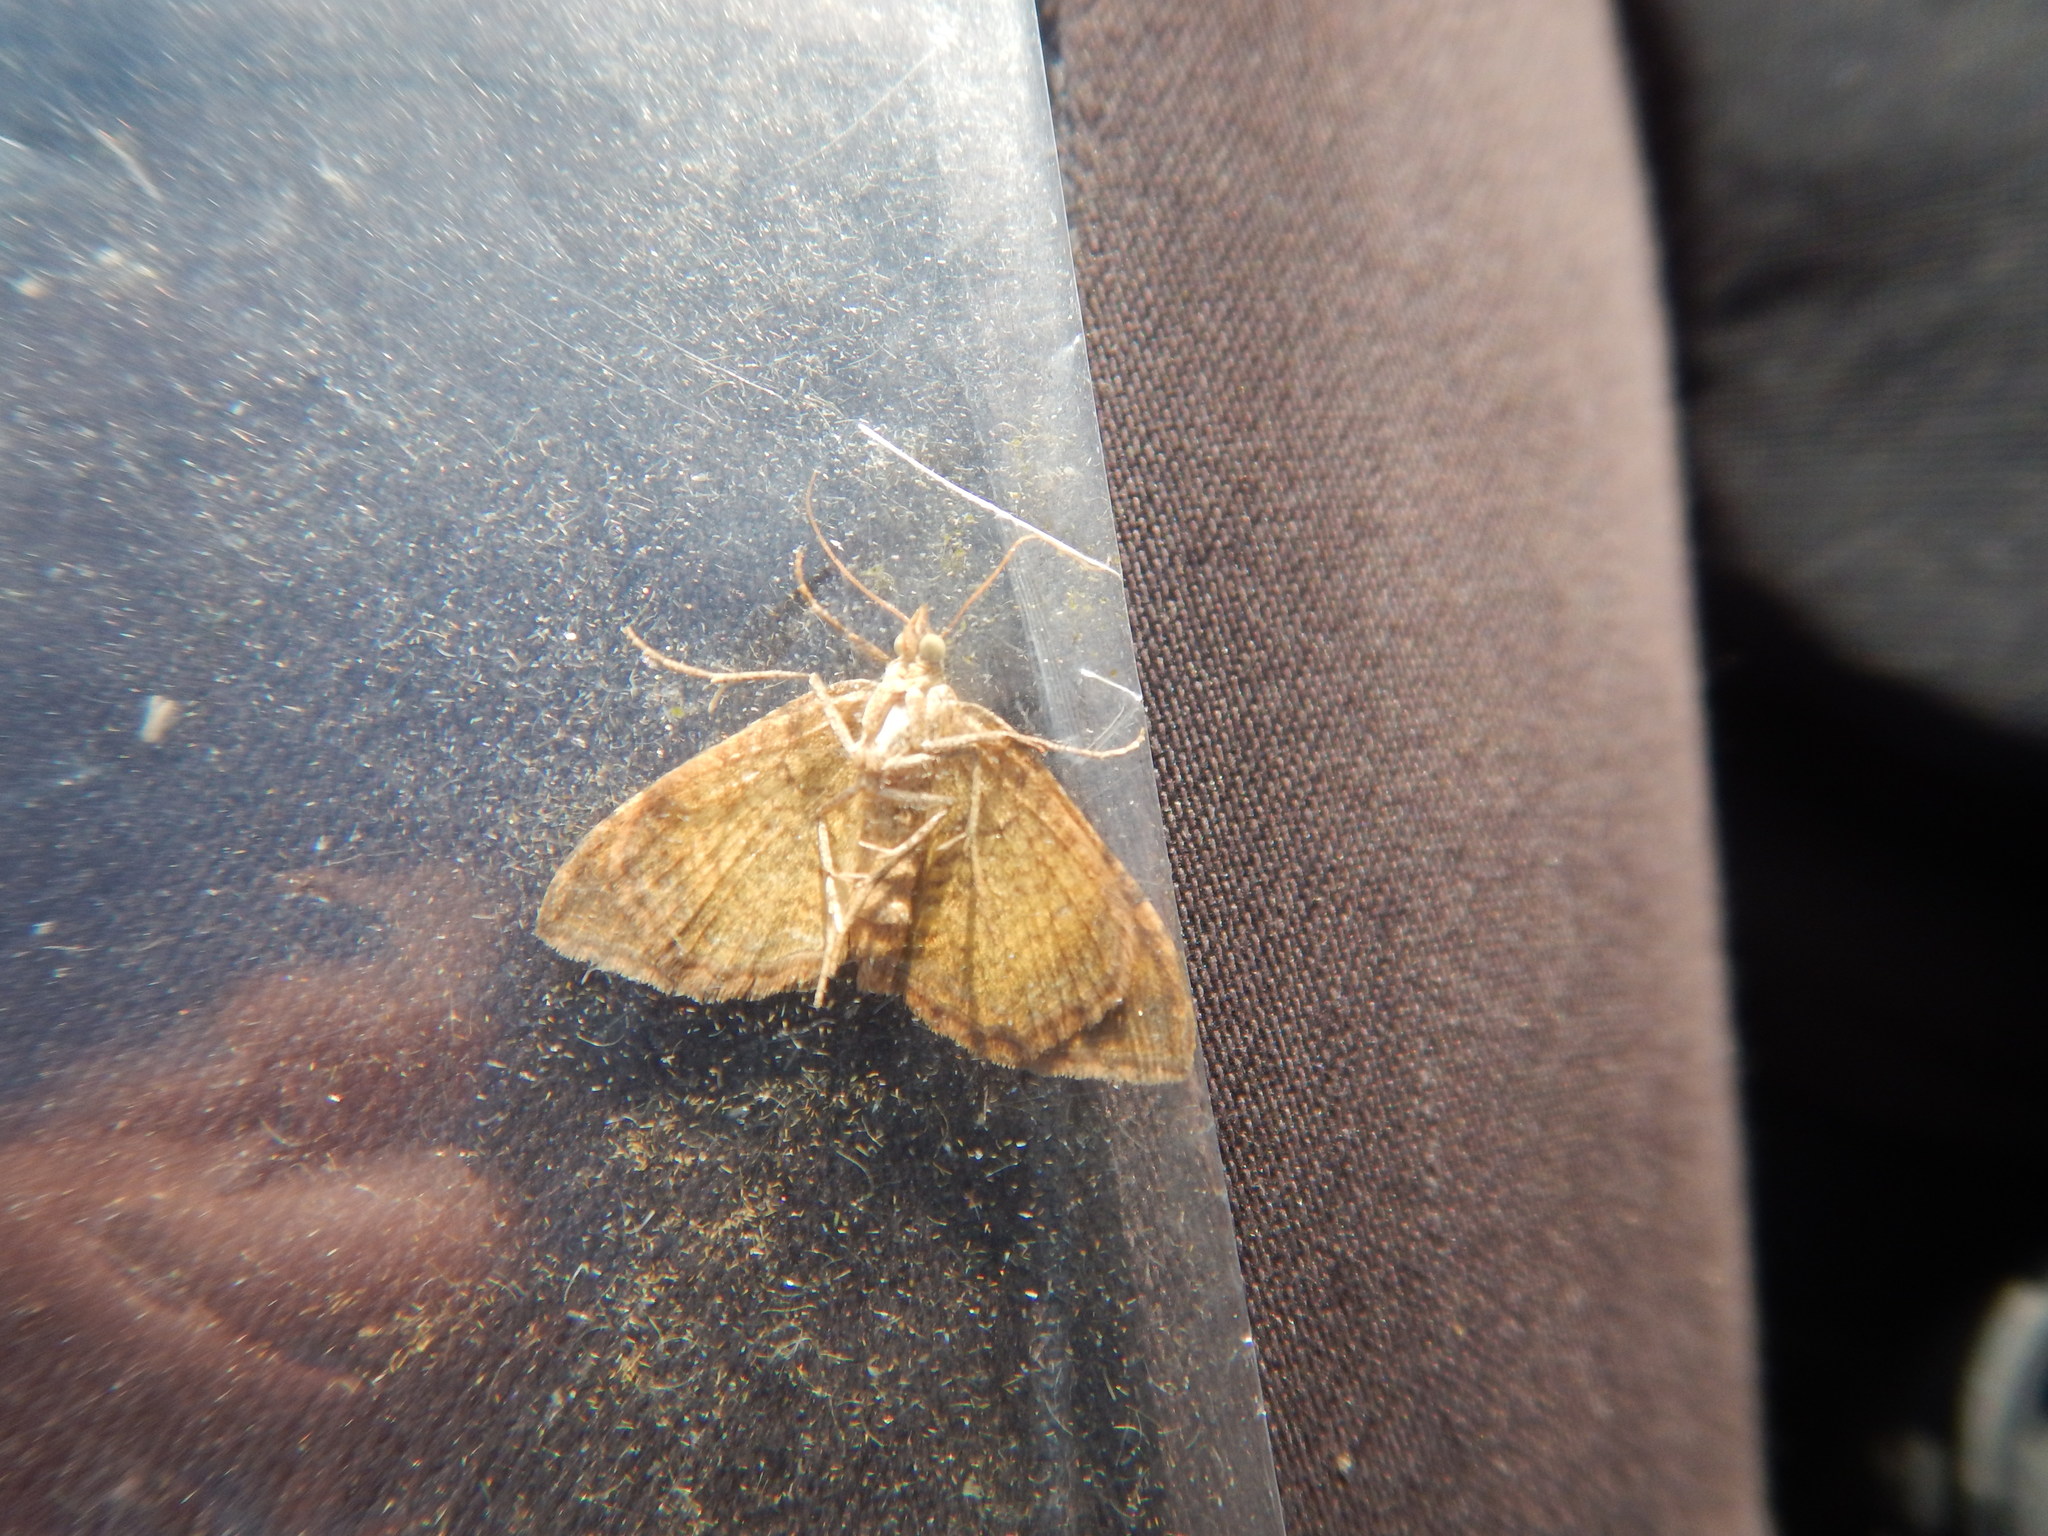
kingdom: Animalia
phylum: Arthropoda
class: Insecta
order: Lepidoptera
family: Geometridae
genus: Camptogramma
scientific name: Camptogramma bilineata
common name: Yellow shell
